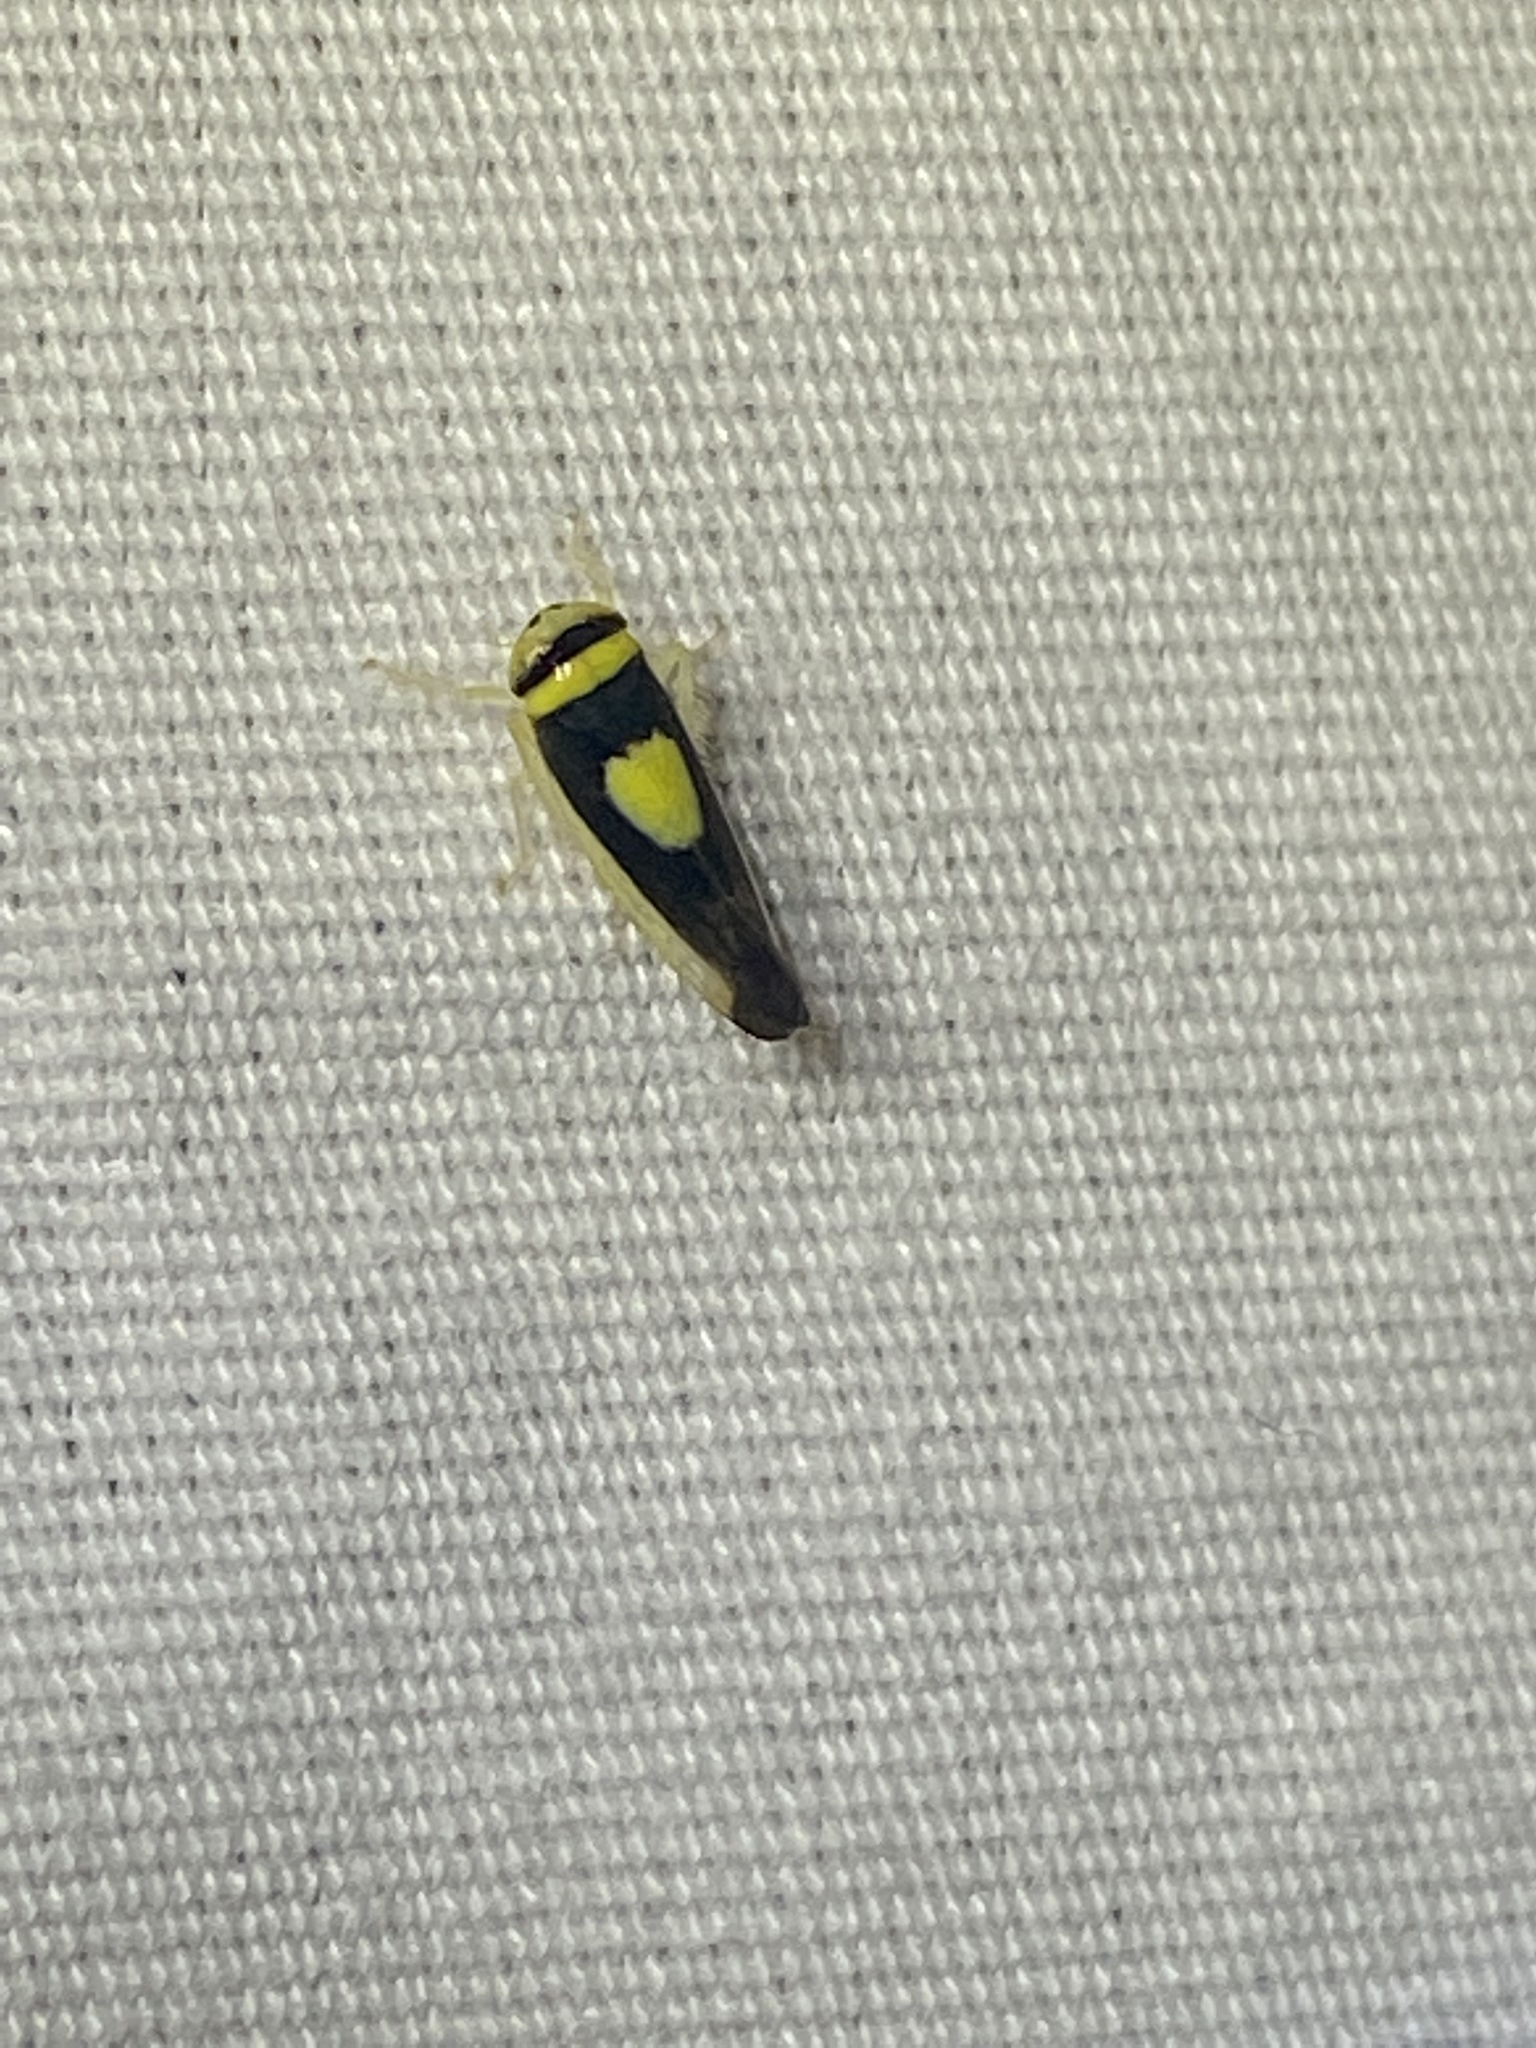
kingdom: Animalia
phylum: Arthropoda
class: Insecta
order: Hemiptera
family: Cicadellidae
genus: Colladonus
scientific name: Colladonus clitellarius
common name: The saddleback leafhopper
